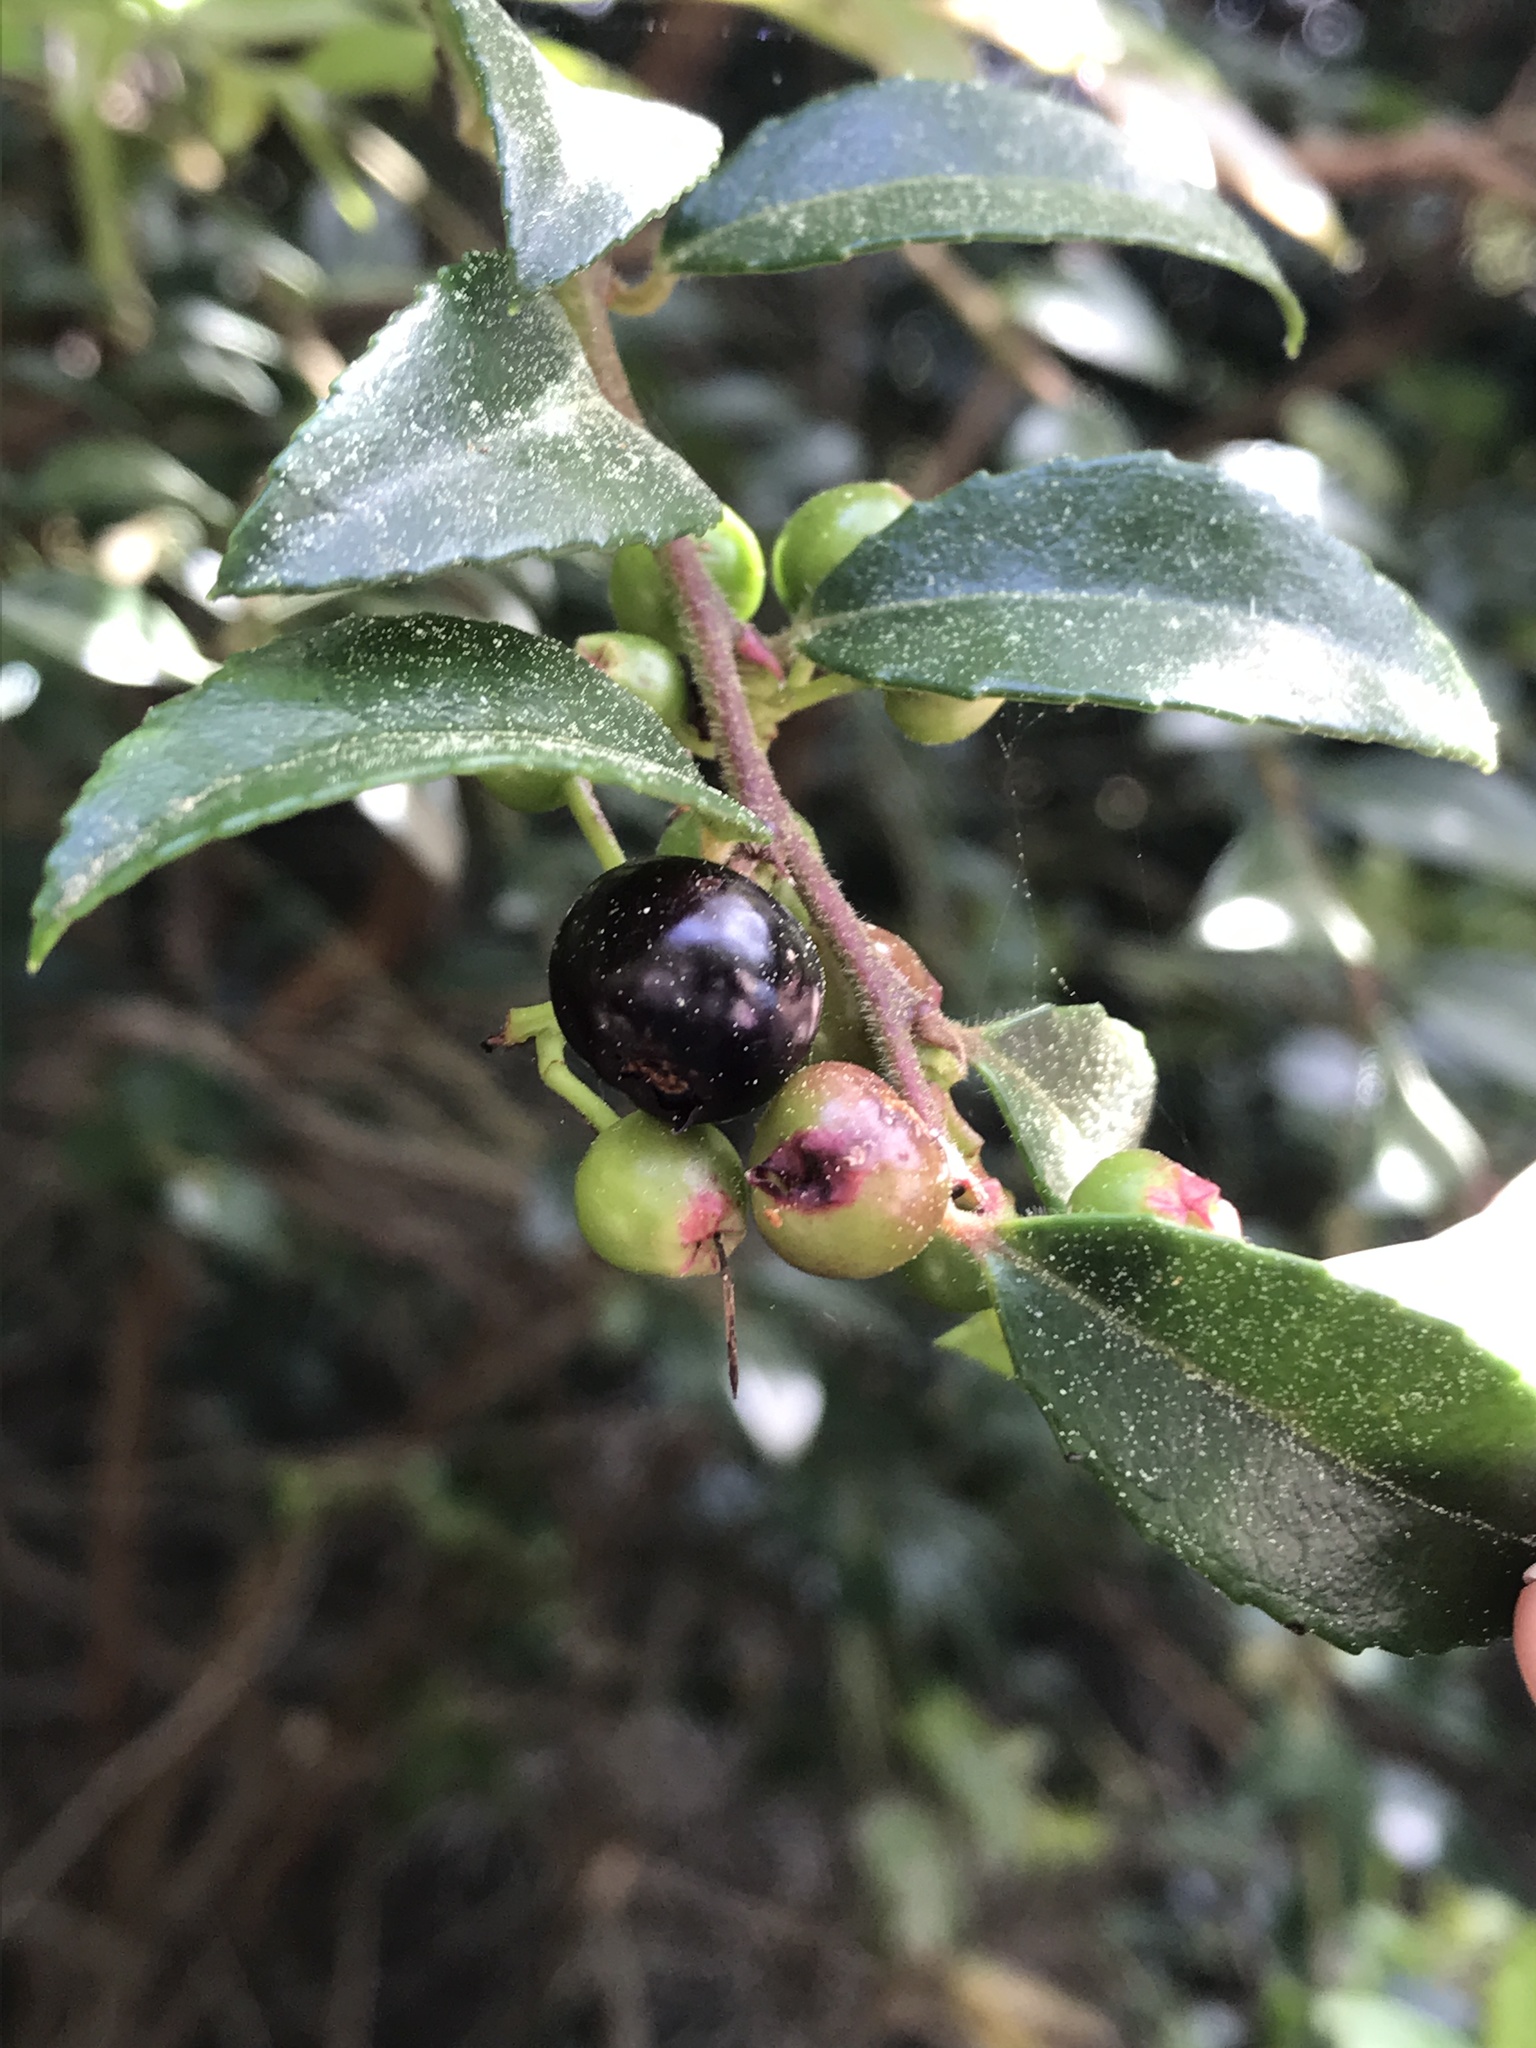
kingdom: Plantae
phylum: Tracheophyta
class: Magnoliopsida
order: Ericales
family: Ericaceae
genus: Vaccinium
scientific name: Vaccinium ovatum
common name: California-huckleberry
